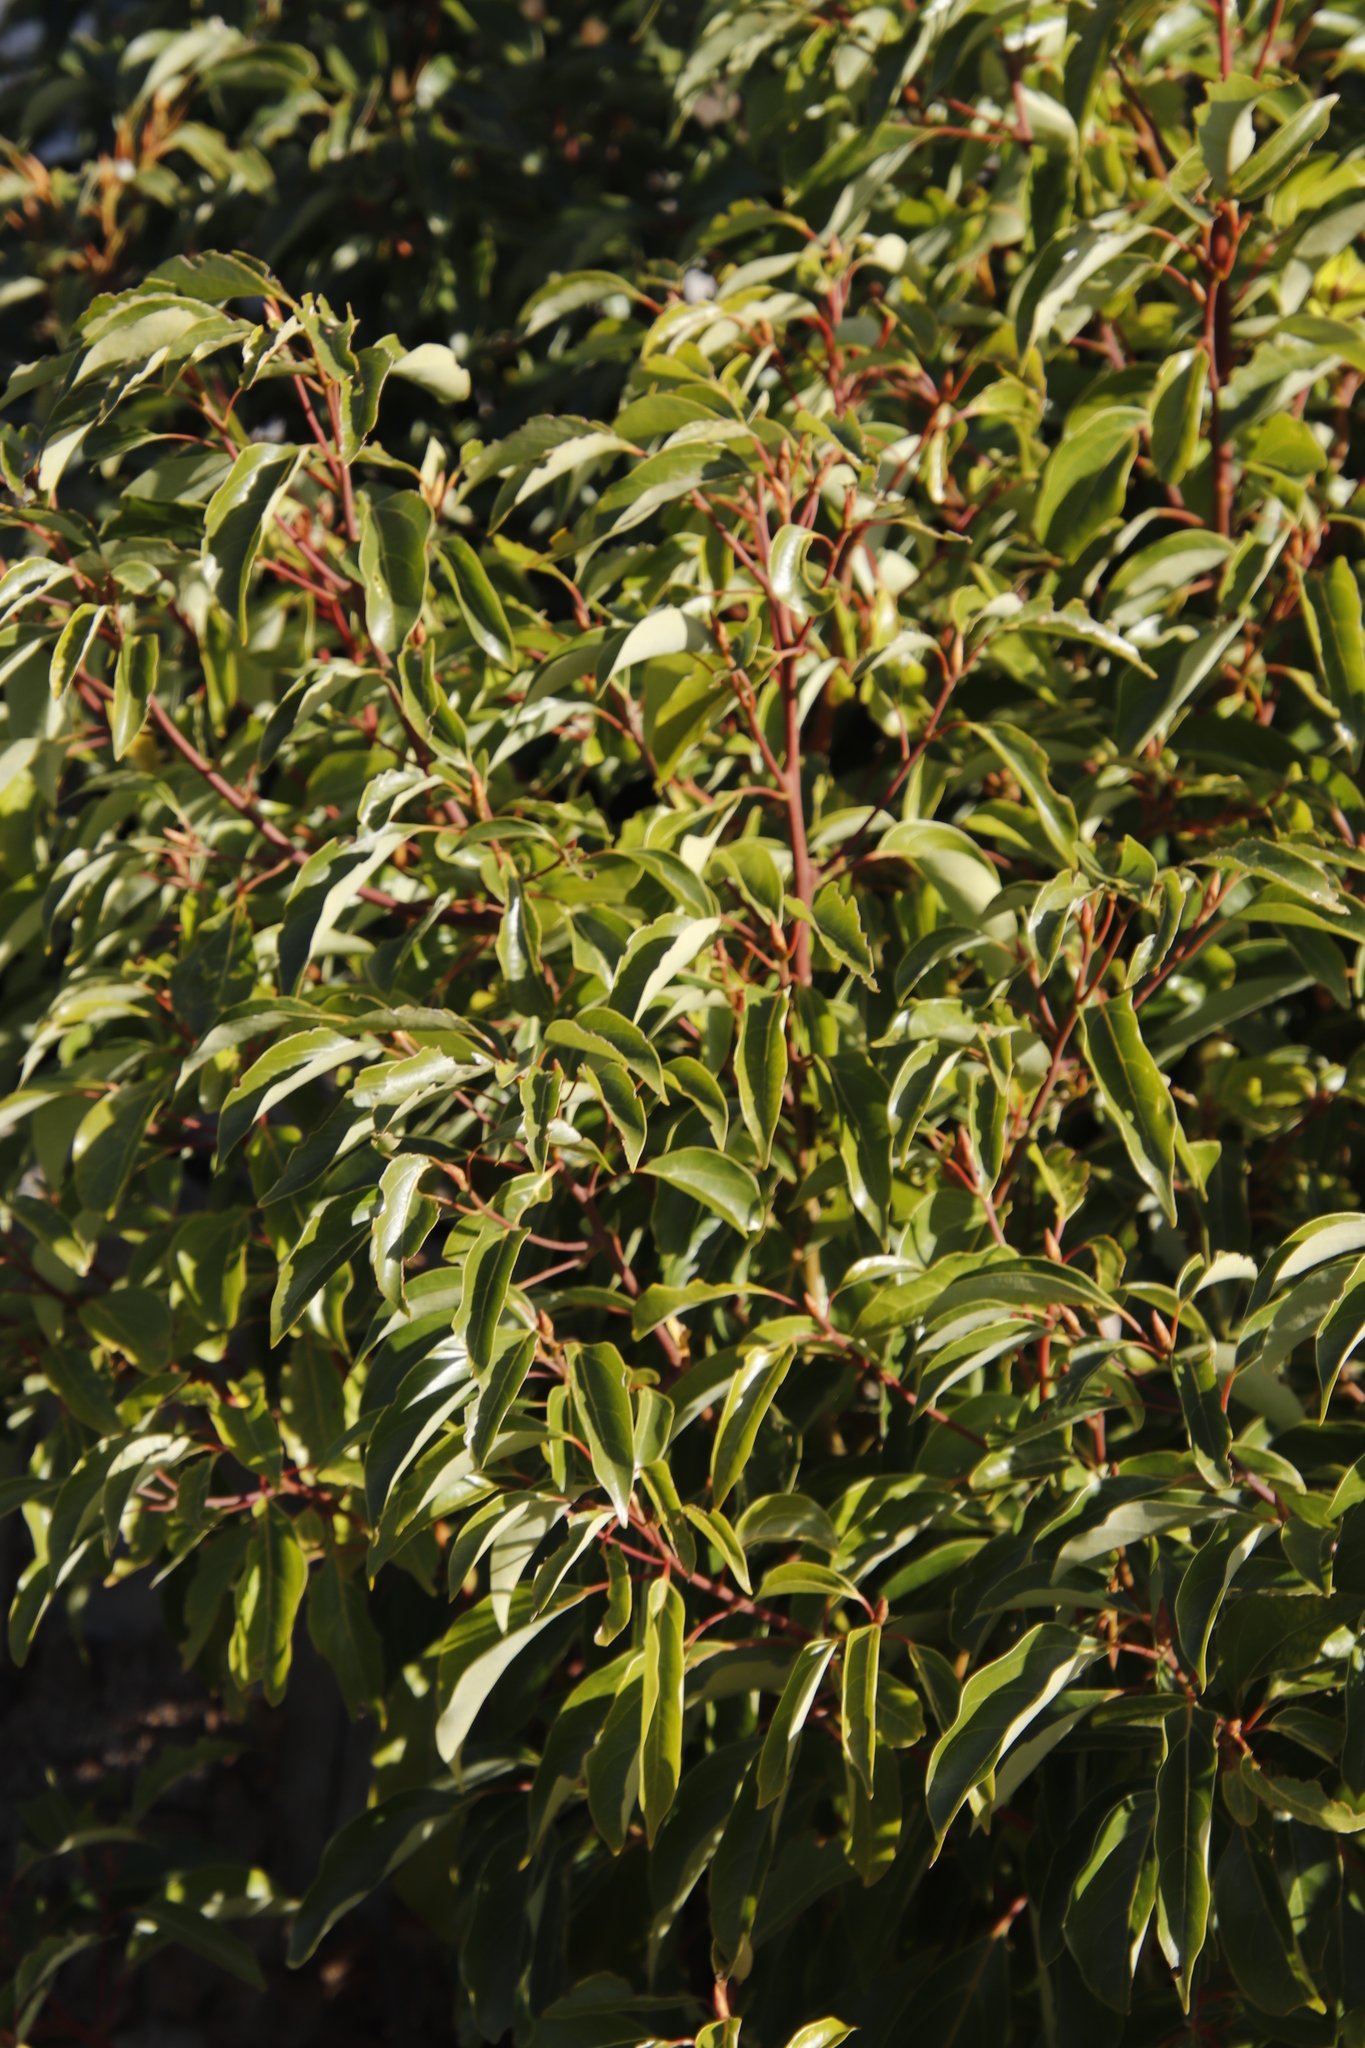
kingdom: Plantae
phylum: Tracheophyta
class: Magnoliopsida
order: Laurales
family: Lauraceae
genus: Cinnamomum
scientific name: Cinnamomum camphora
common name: Camphortree
